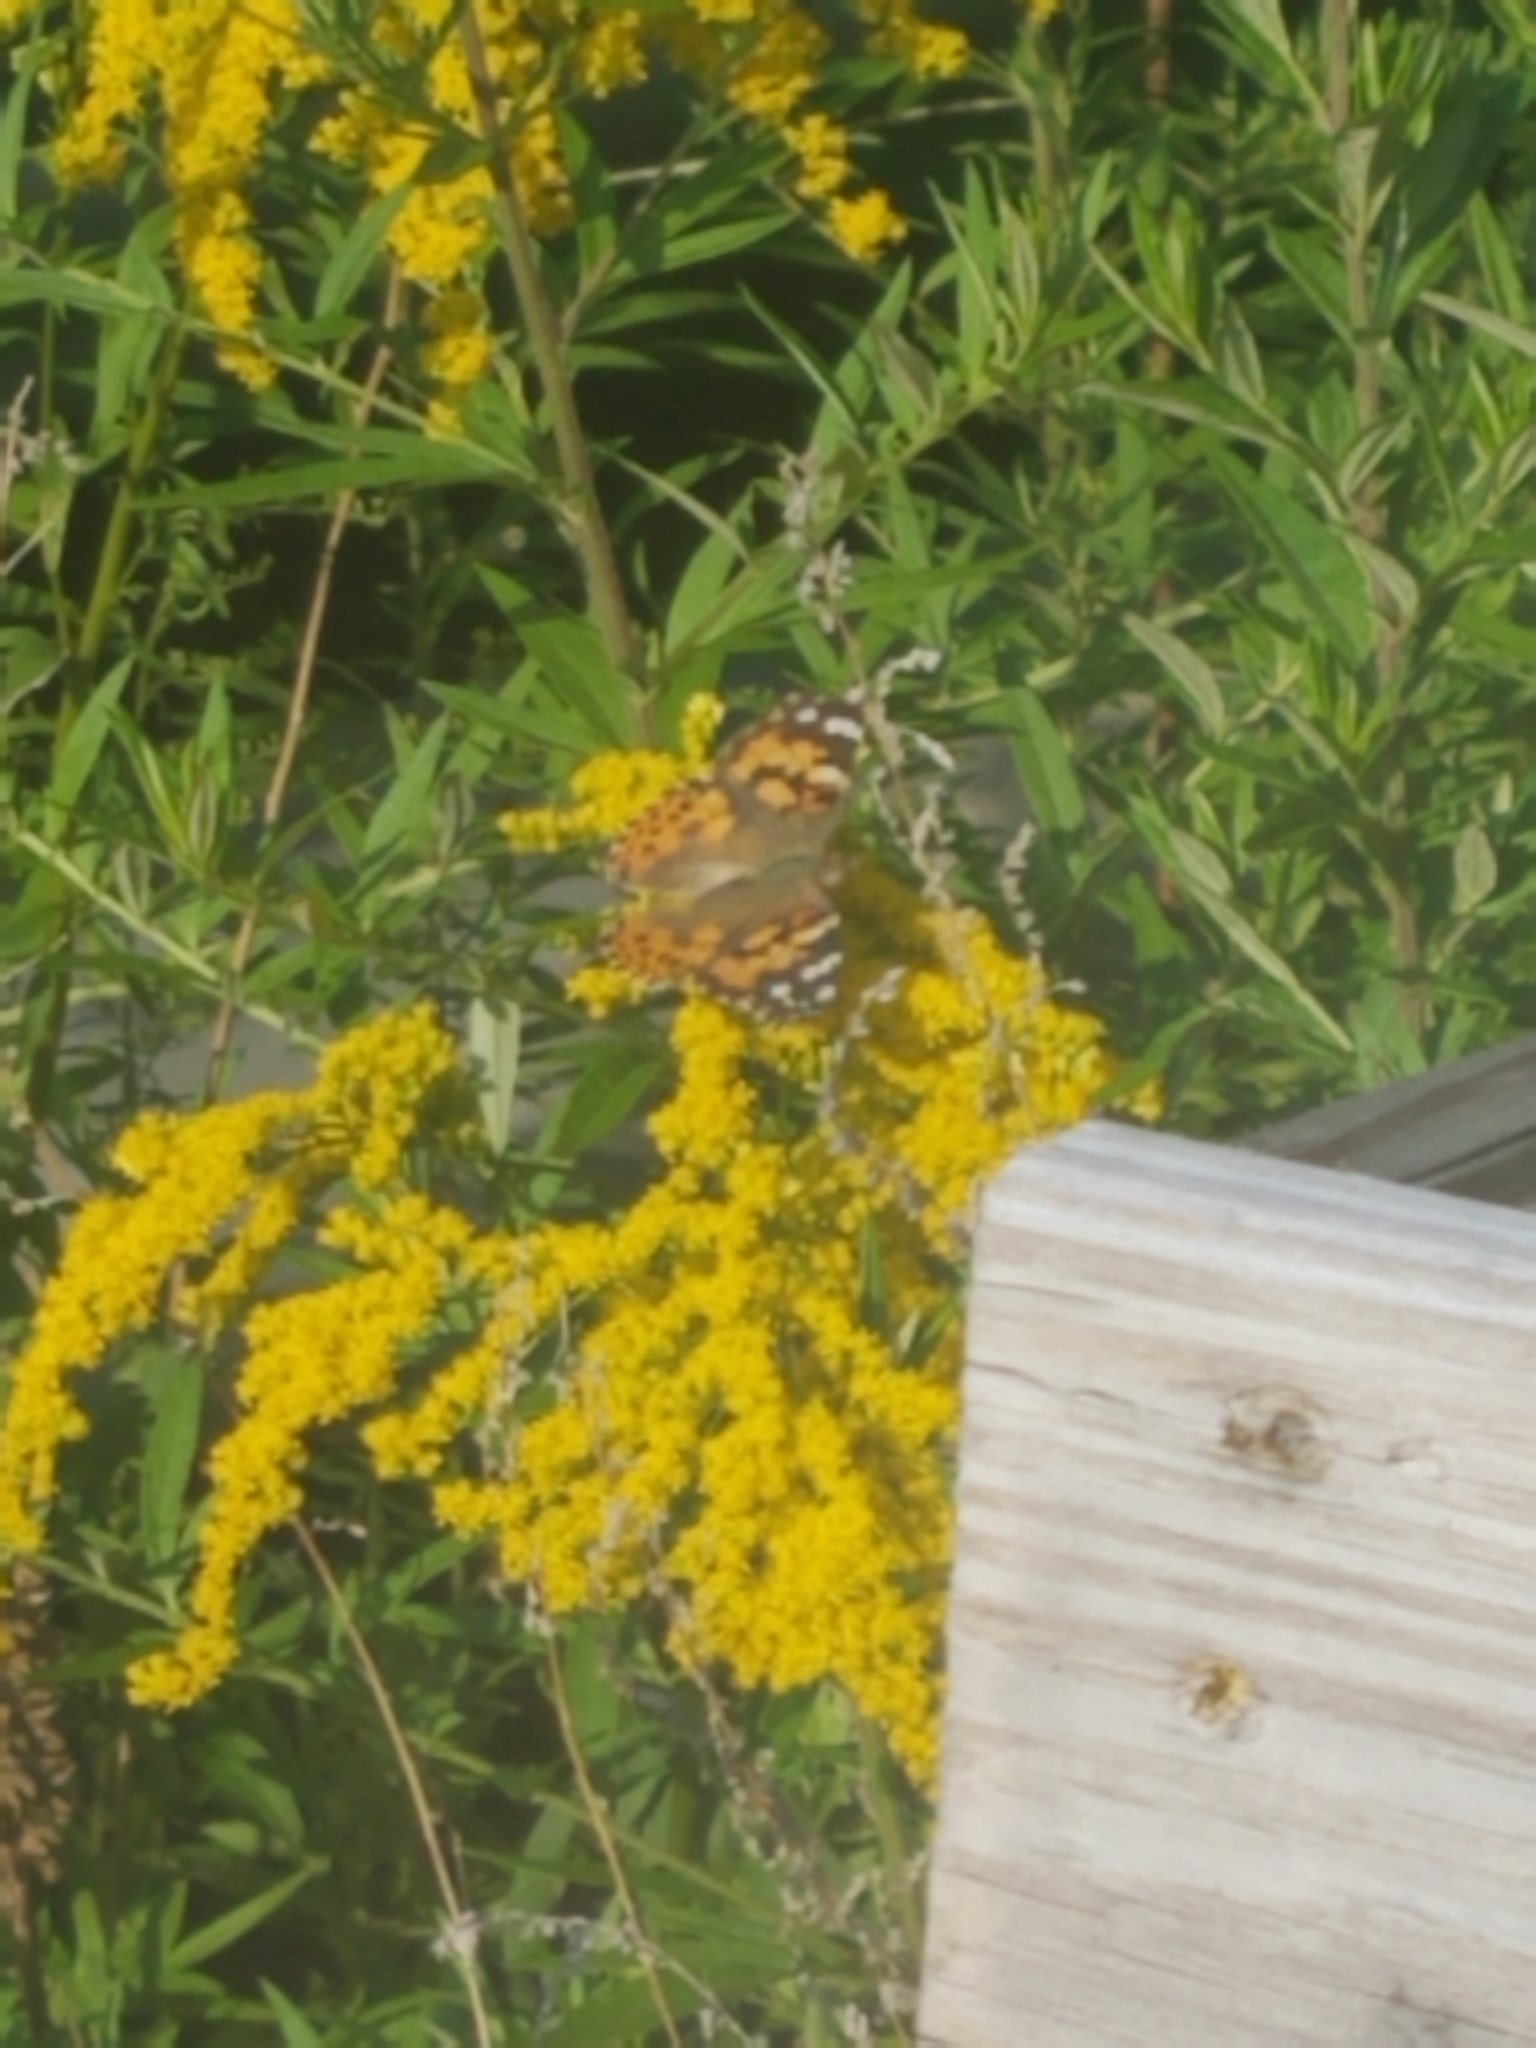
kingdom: Animalia
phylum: Arthropoda
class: Insecta
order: Lepidoptera
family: Nymphalidae
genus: Vanessa
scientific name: Vanessa cardui
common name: Painted lady
